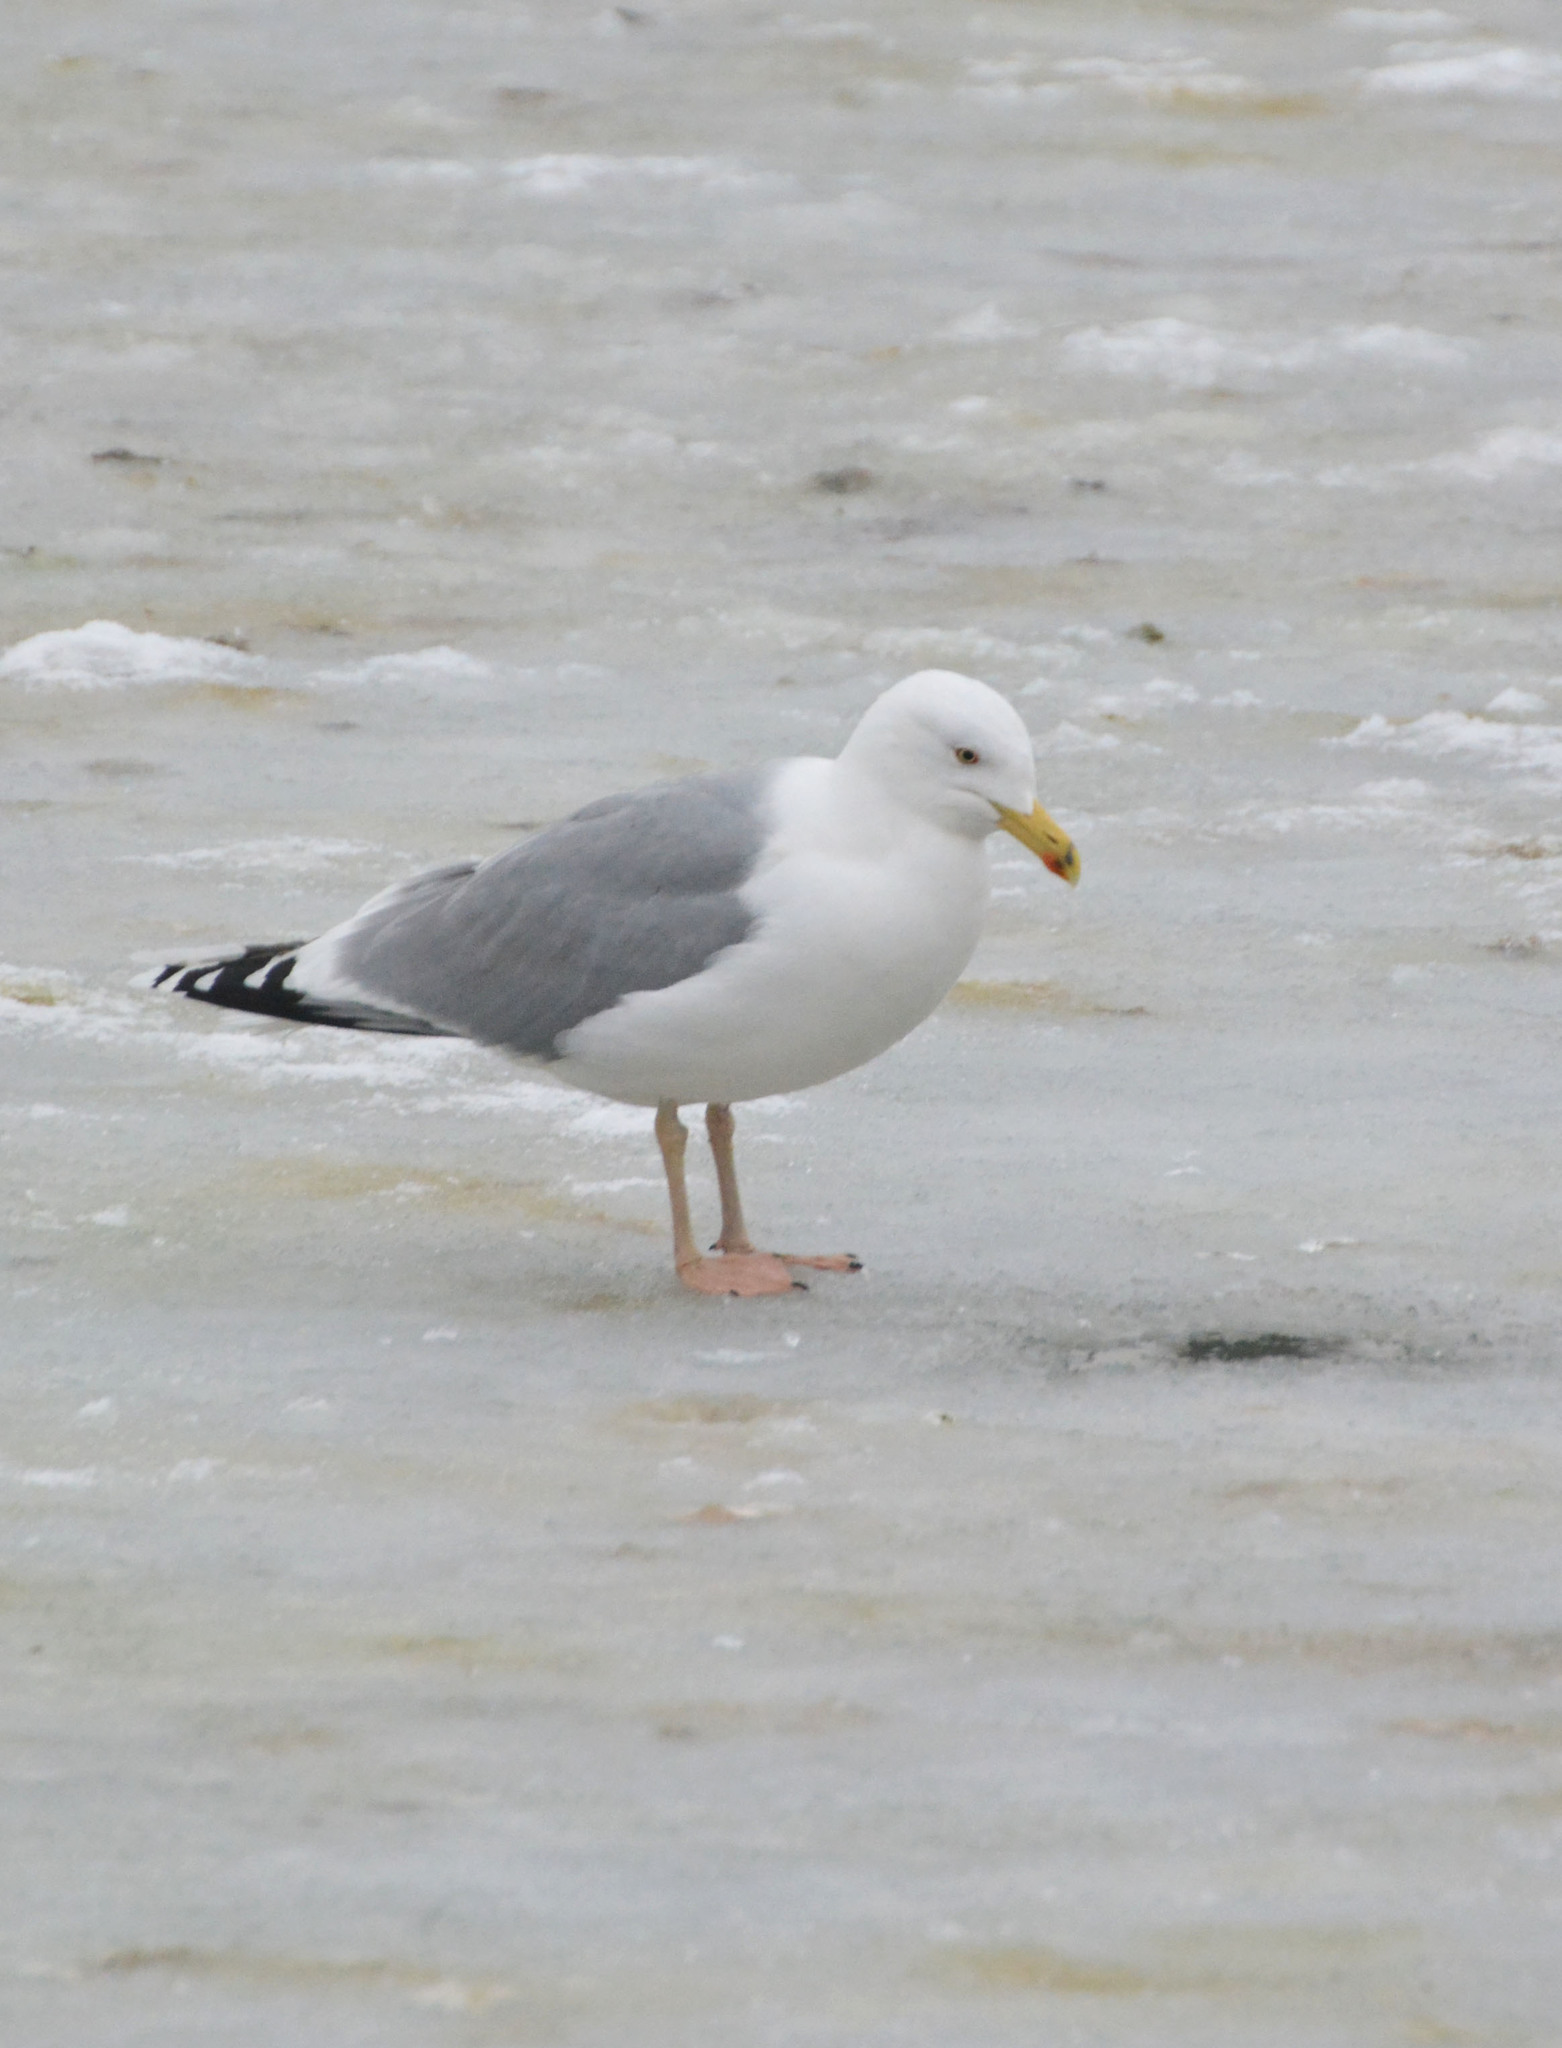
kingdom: Animalia
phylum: Chordata
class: Aves
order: Charadriiformes
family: Laridae
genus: Larus
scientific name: Larus argentatus
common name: Herring gull
